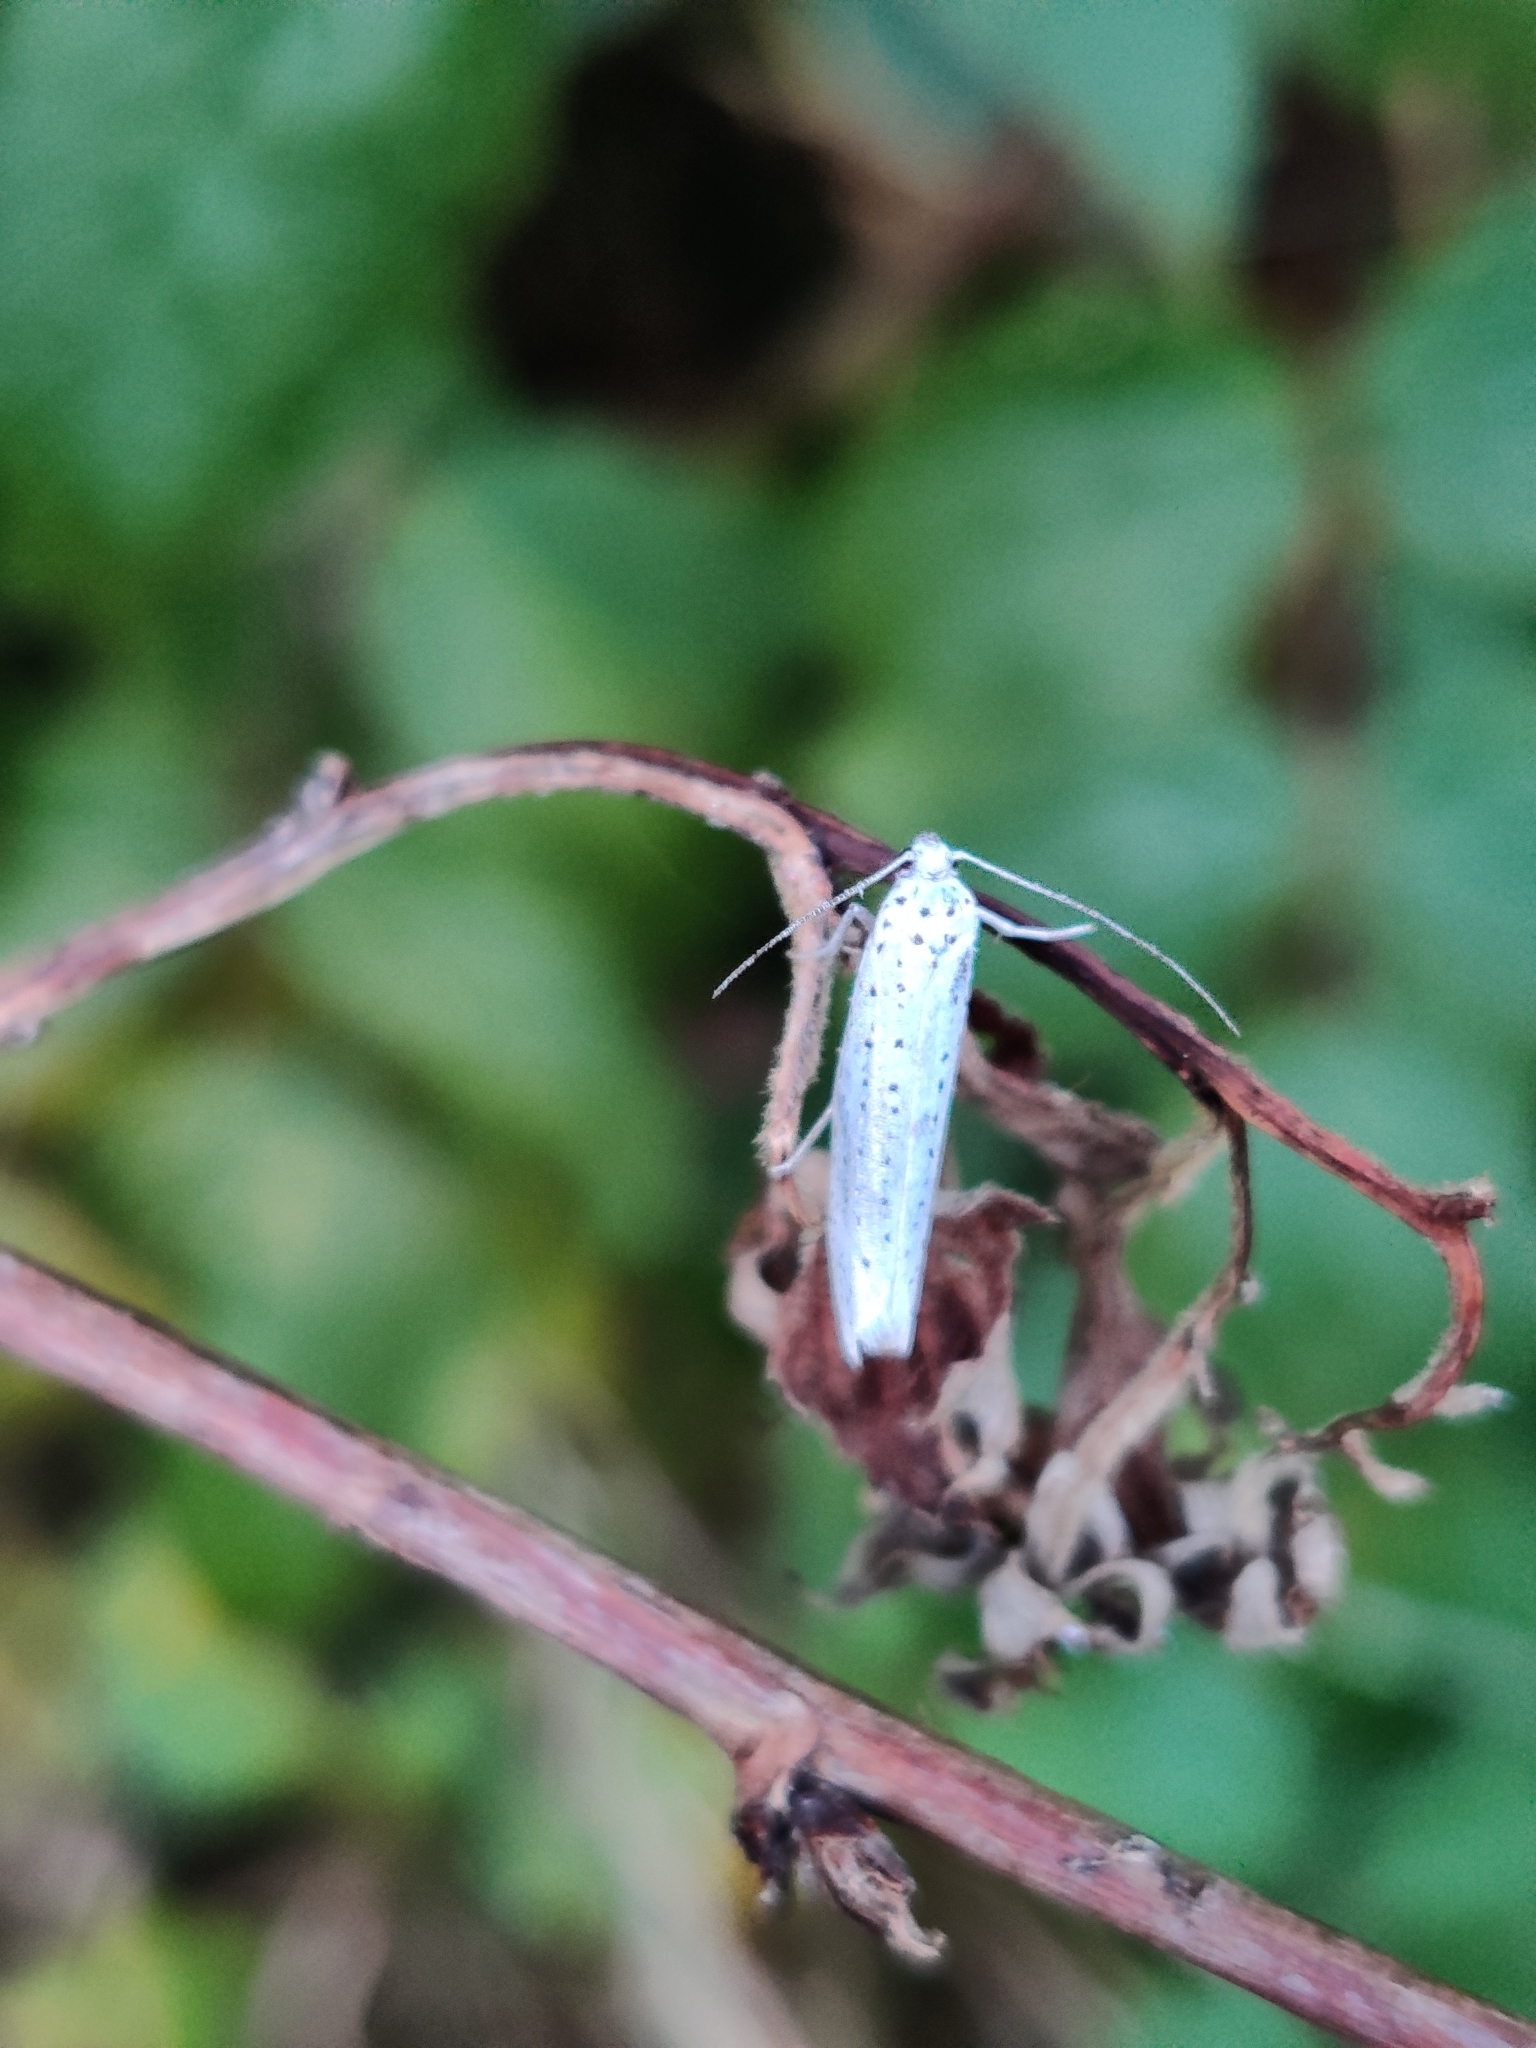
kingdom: Animalia
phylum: Arthropoda
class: Insecta
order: Lepidoptera
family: Yponomeutidae
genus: Yponomeuta
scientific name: Yponomeuta evonymella
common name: Bird-cherry ermine
